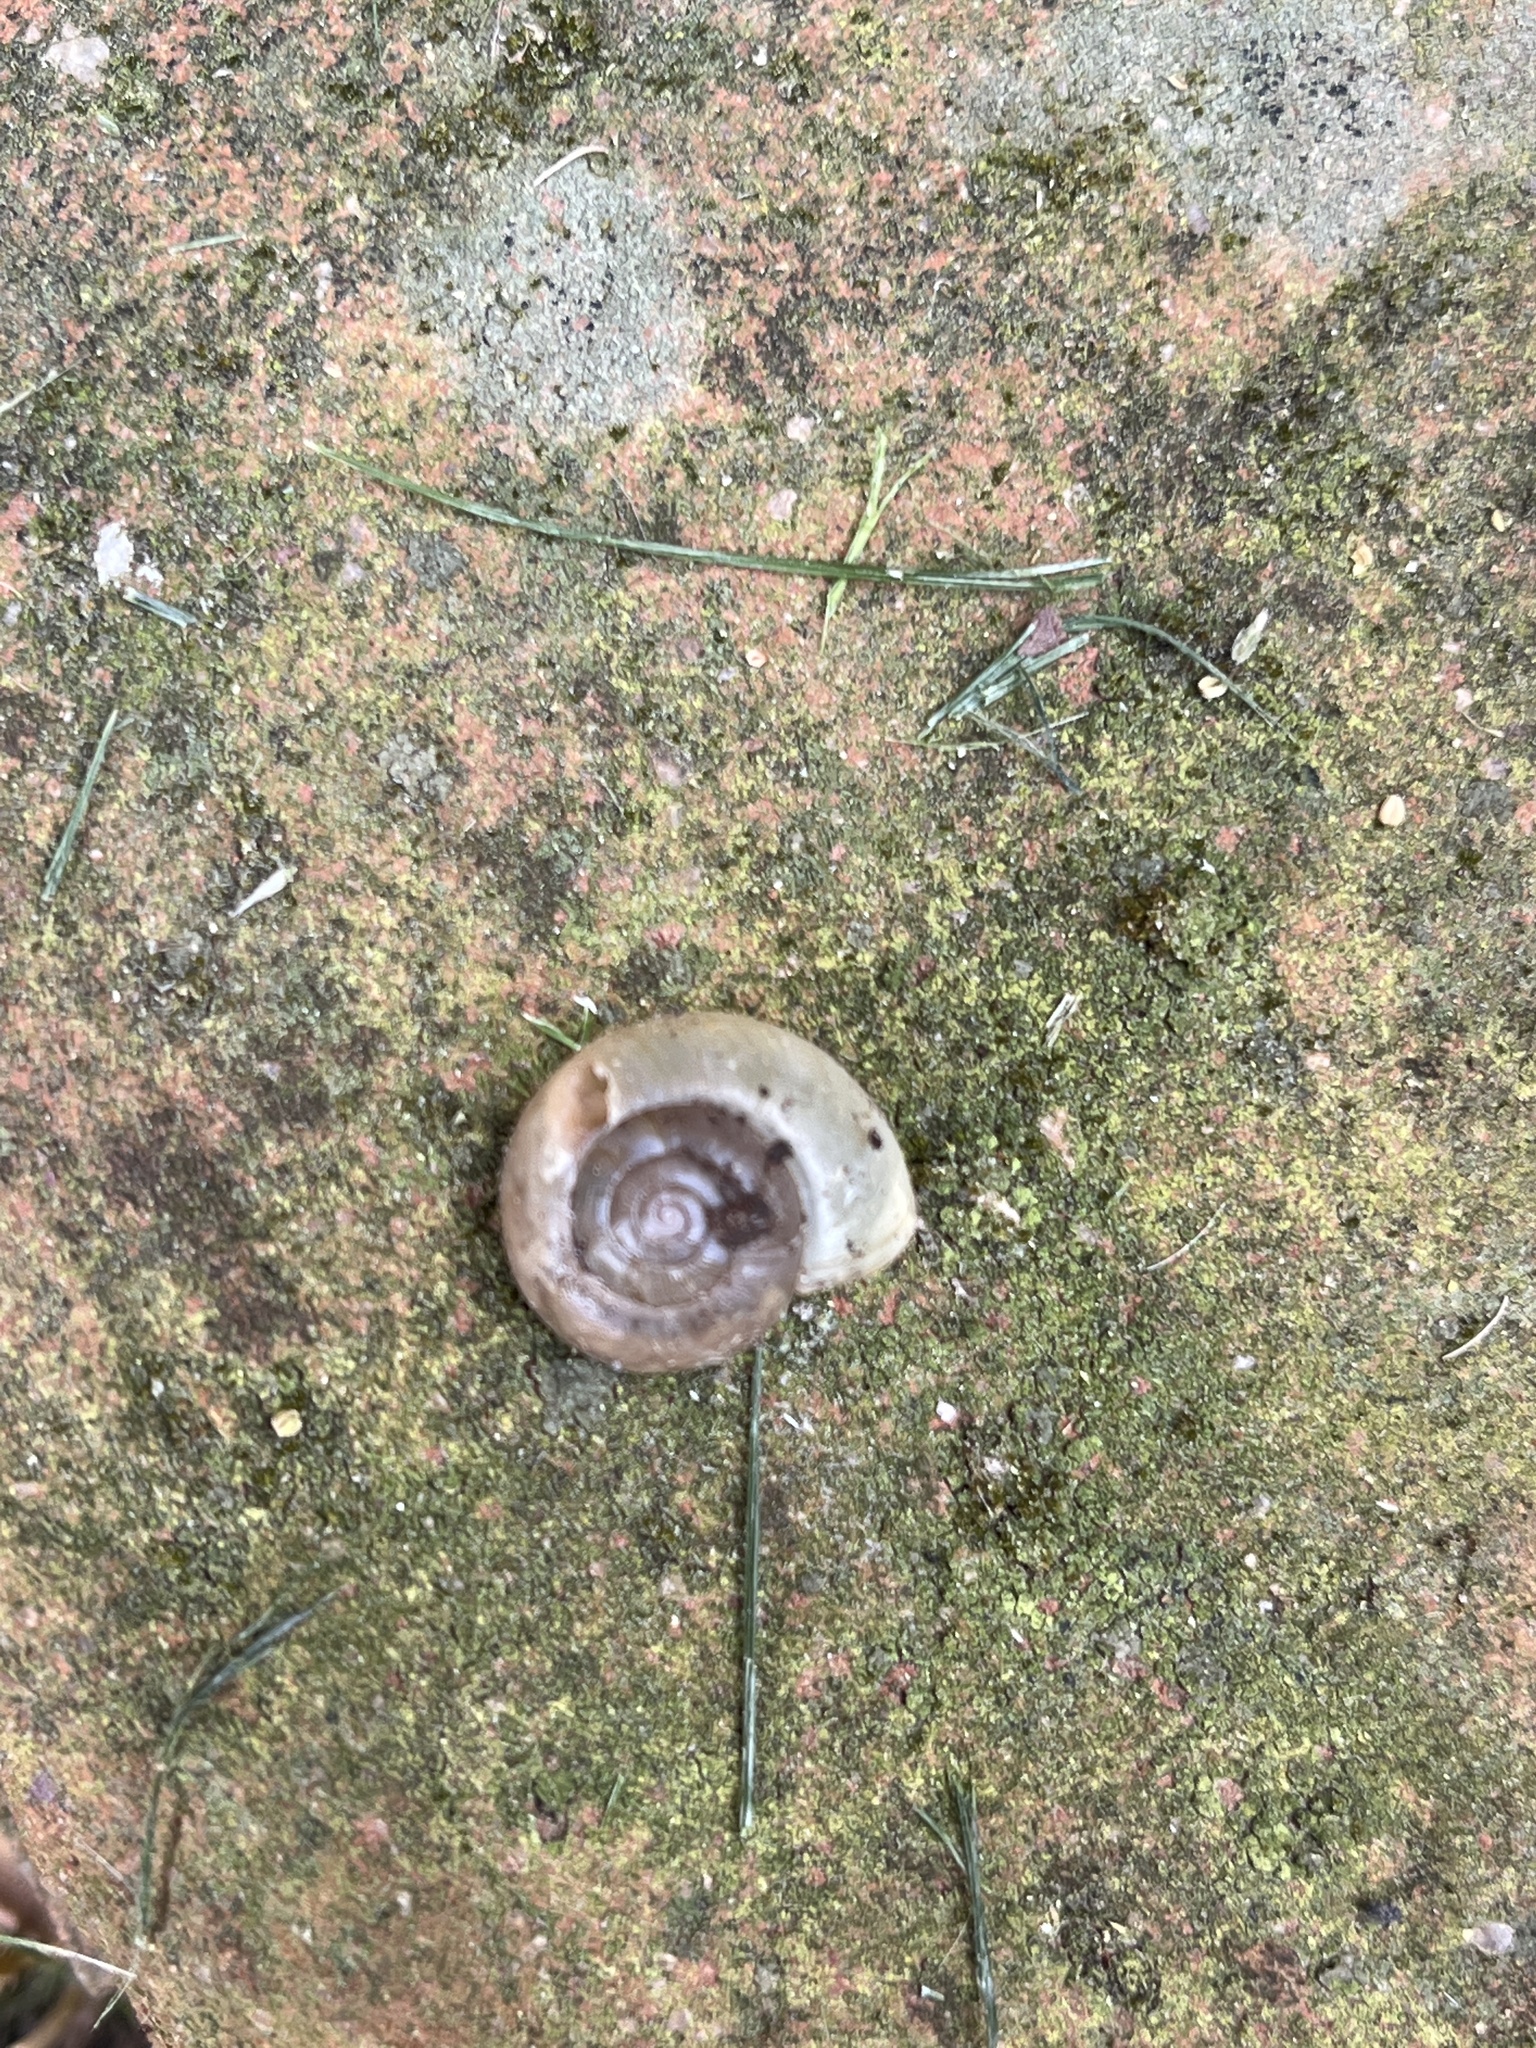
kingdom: Animalia
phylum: Mollusca
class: Gastropoda
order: Stylommatophora
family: Haplotrematidae
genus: Haplotrema
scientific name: Haplotrema concavum
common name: Gray-foot lancetooth
